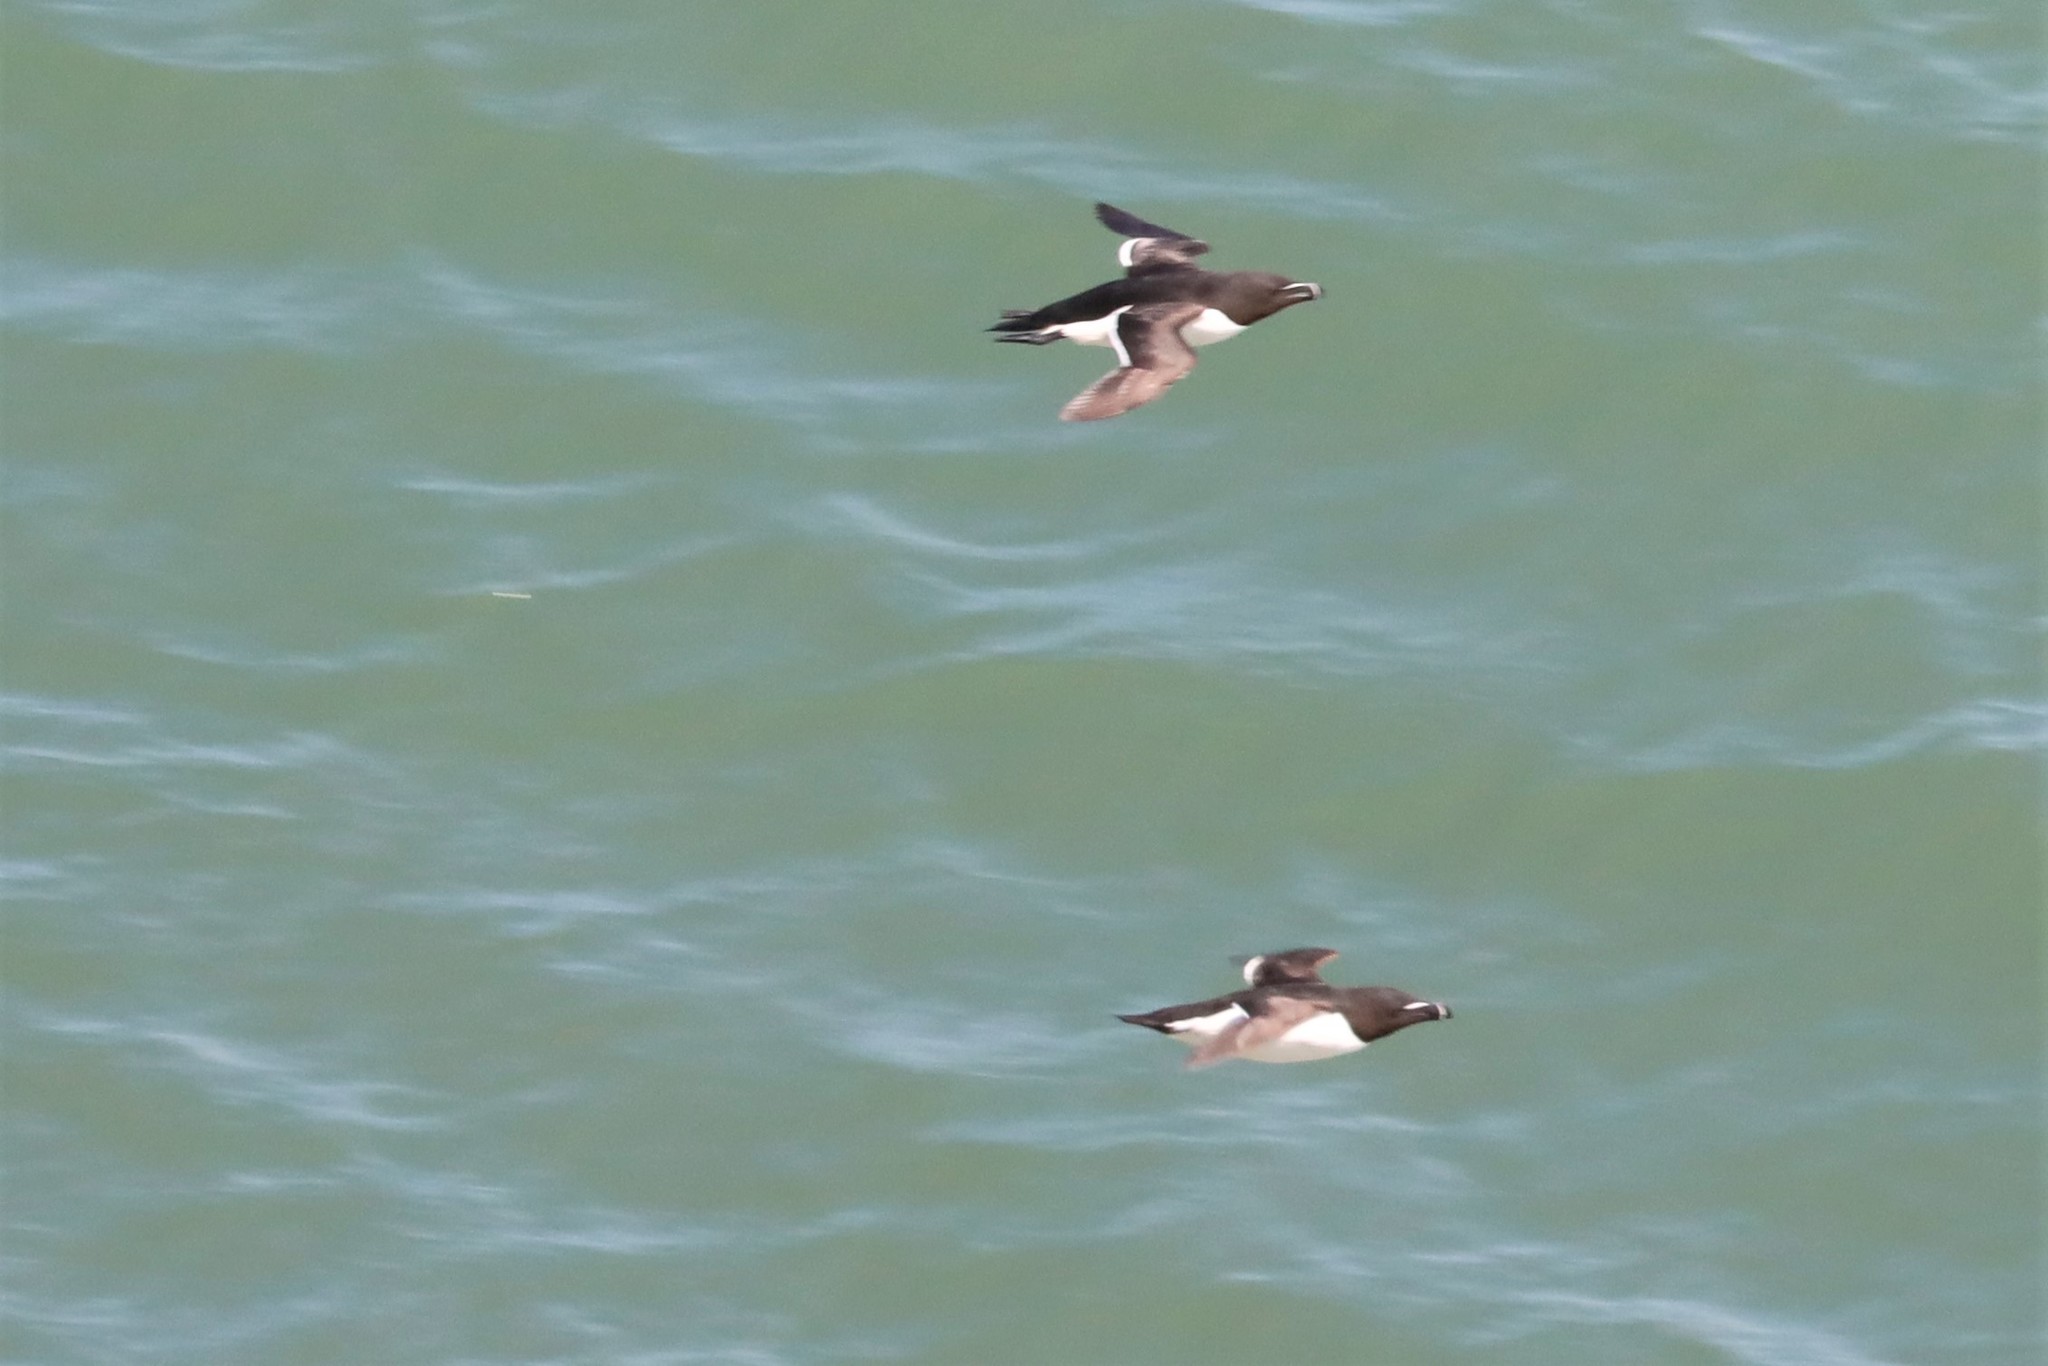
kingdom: Animalia
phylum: Chordata
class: Aves
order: Charadriiformes
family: Alcidae
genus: Alca
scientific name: Alca torda
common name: Razorbill
